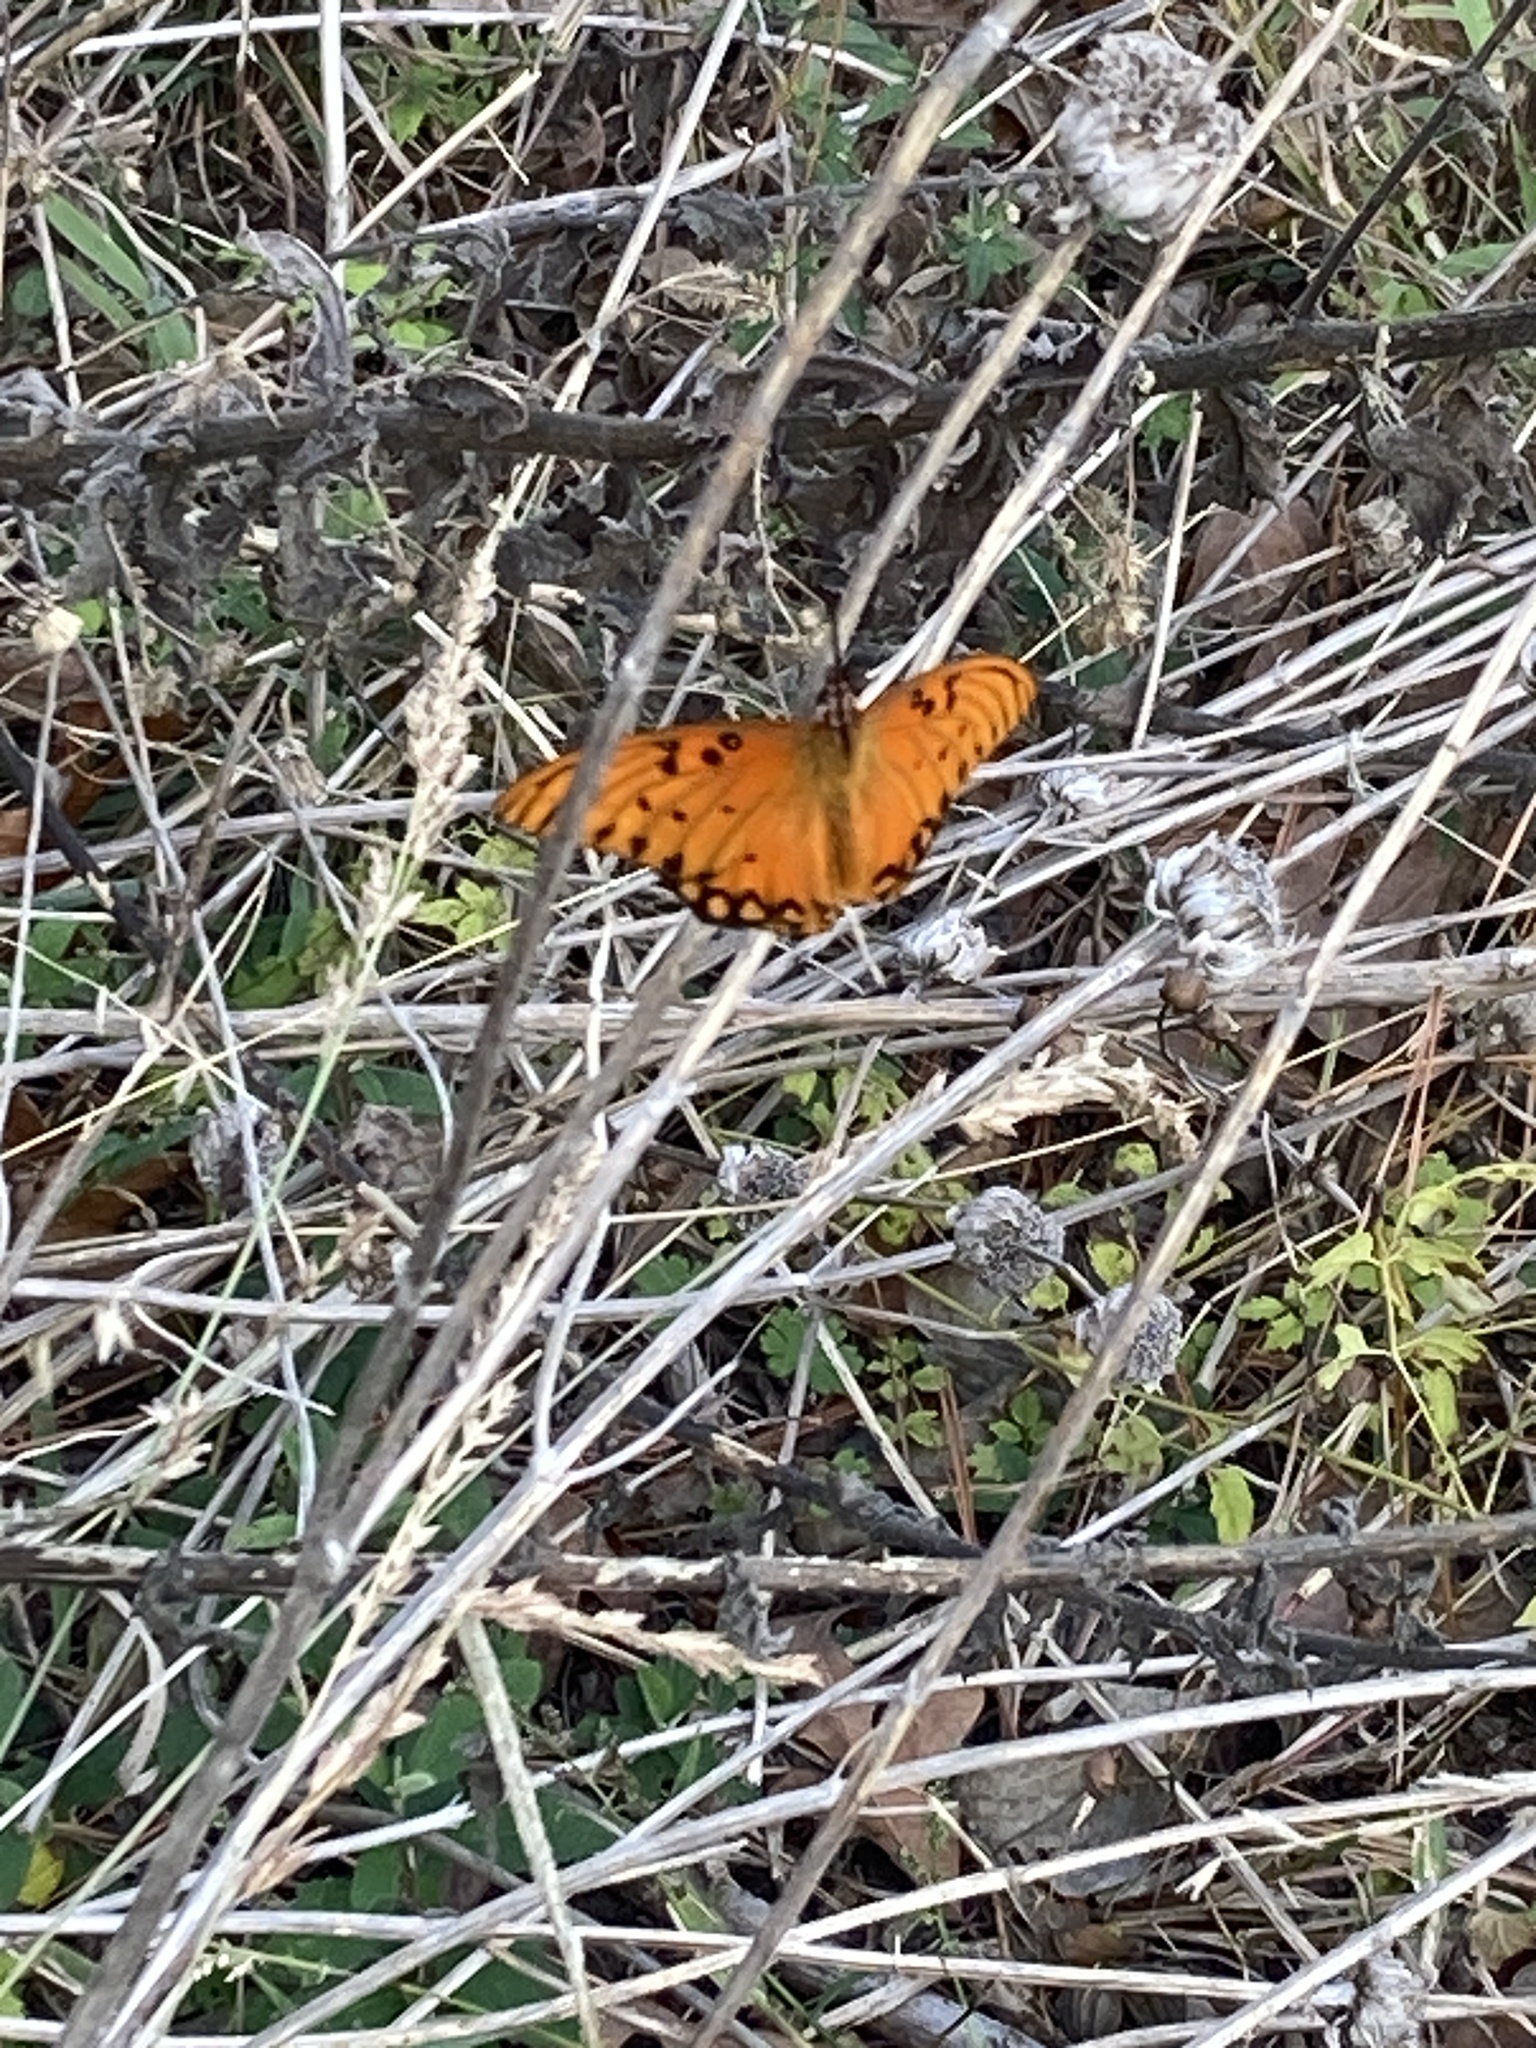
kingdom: Animalia
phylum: Arthropoda
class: Insecta
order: Lepidoptera
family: Nymphalidae
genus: Dione
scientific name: Dione vanillae
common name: Gulf fritillary
